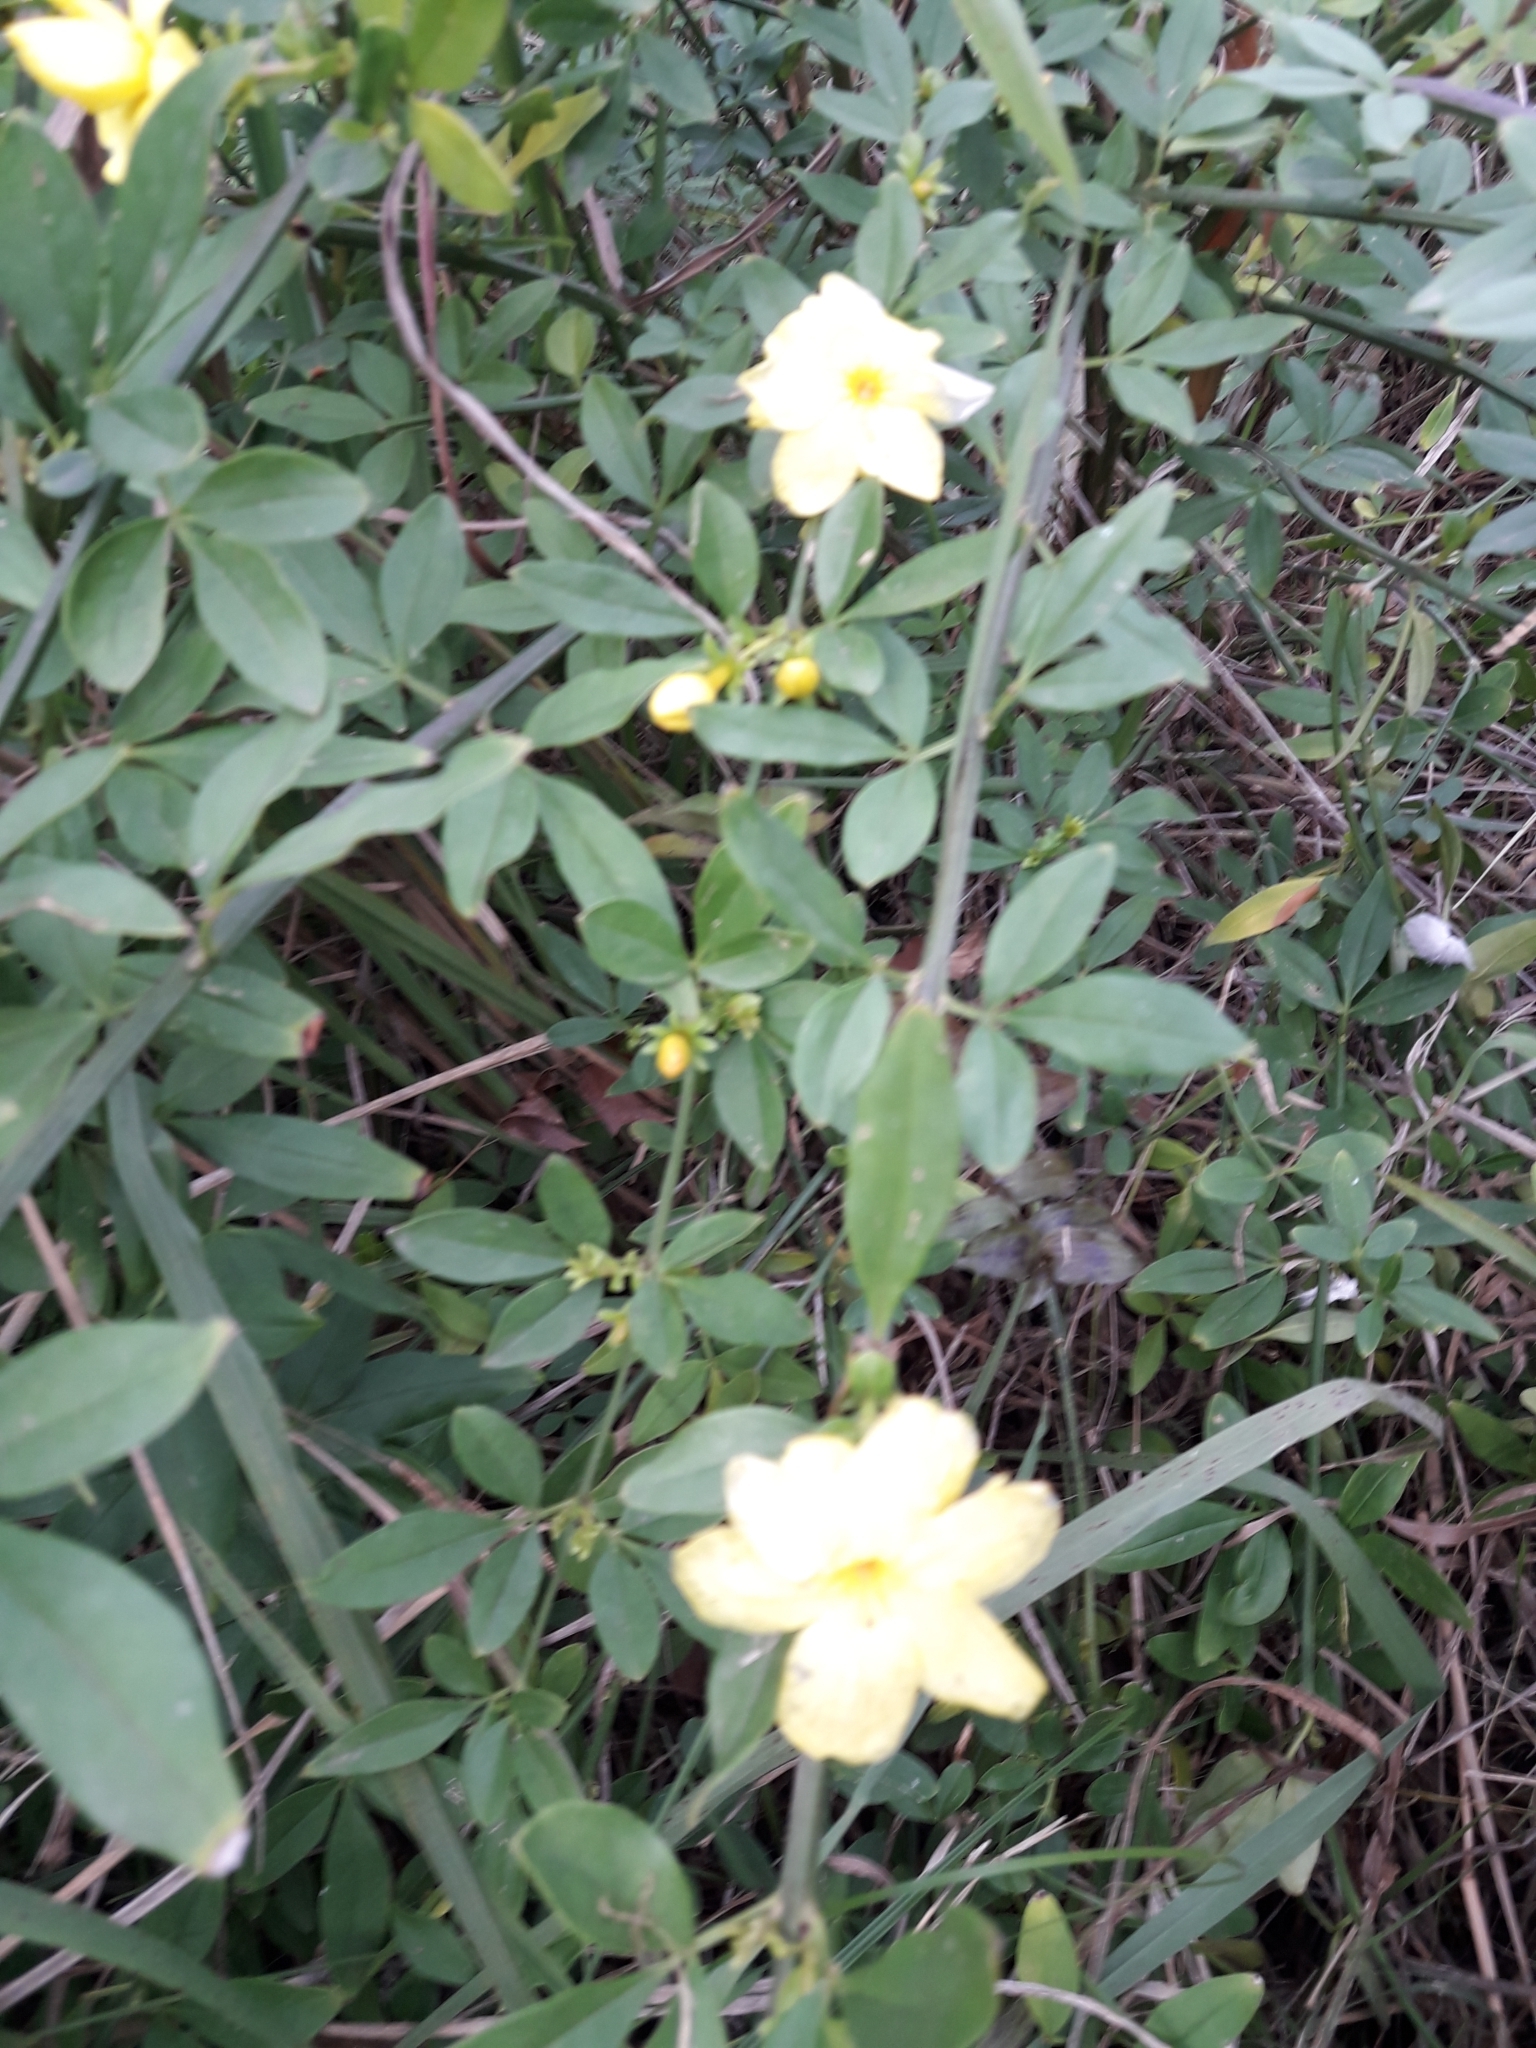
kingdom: Plantae
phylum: Tracheophyta
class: Magnoliopsida
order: Lamiales
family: Oleaceae
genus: Jasminum
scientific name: Jasminum mesnyi
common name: Japanese jasmine
